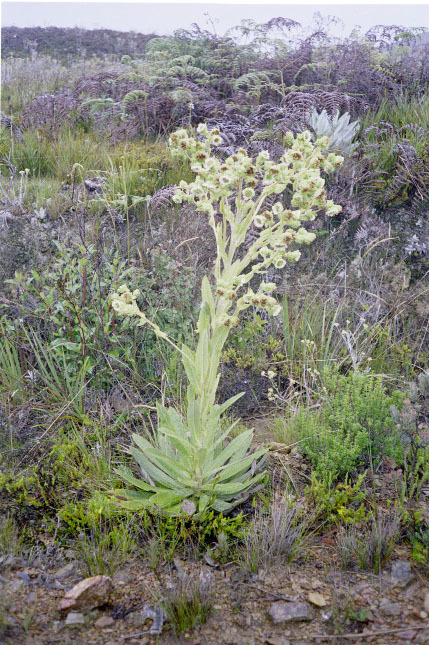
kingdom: Plantae
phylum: Tracheophyta
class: Magnoliopsida
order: Asterales
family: Asteraceae
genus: Espeletia
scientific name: Espeletia lindenii
